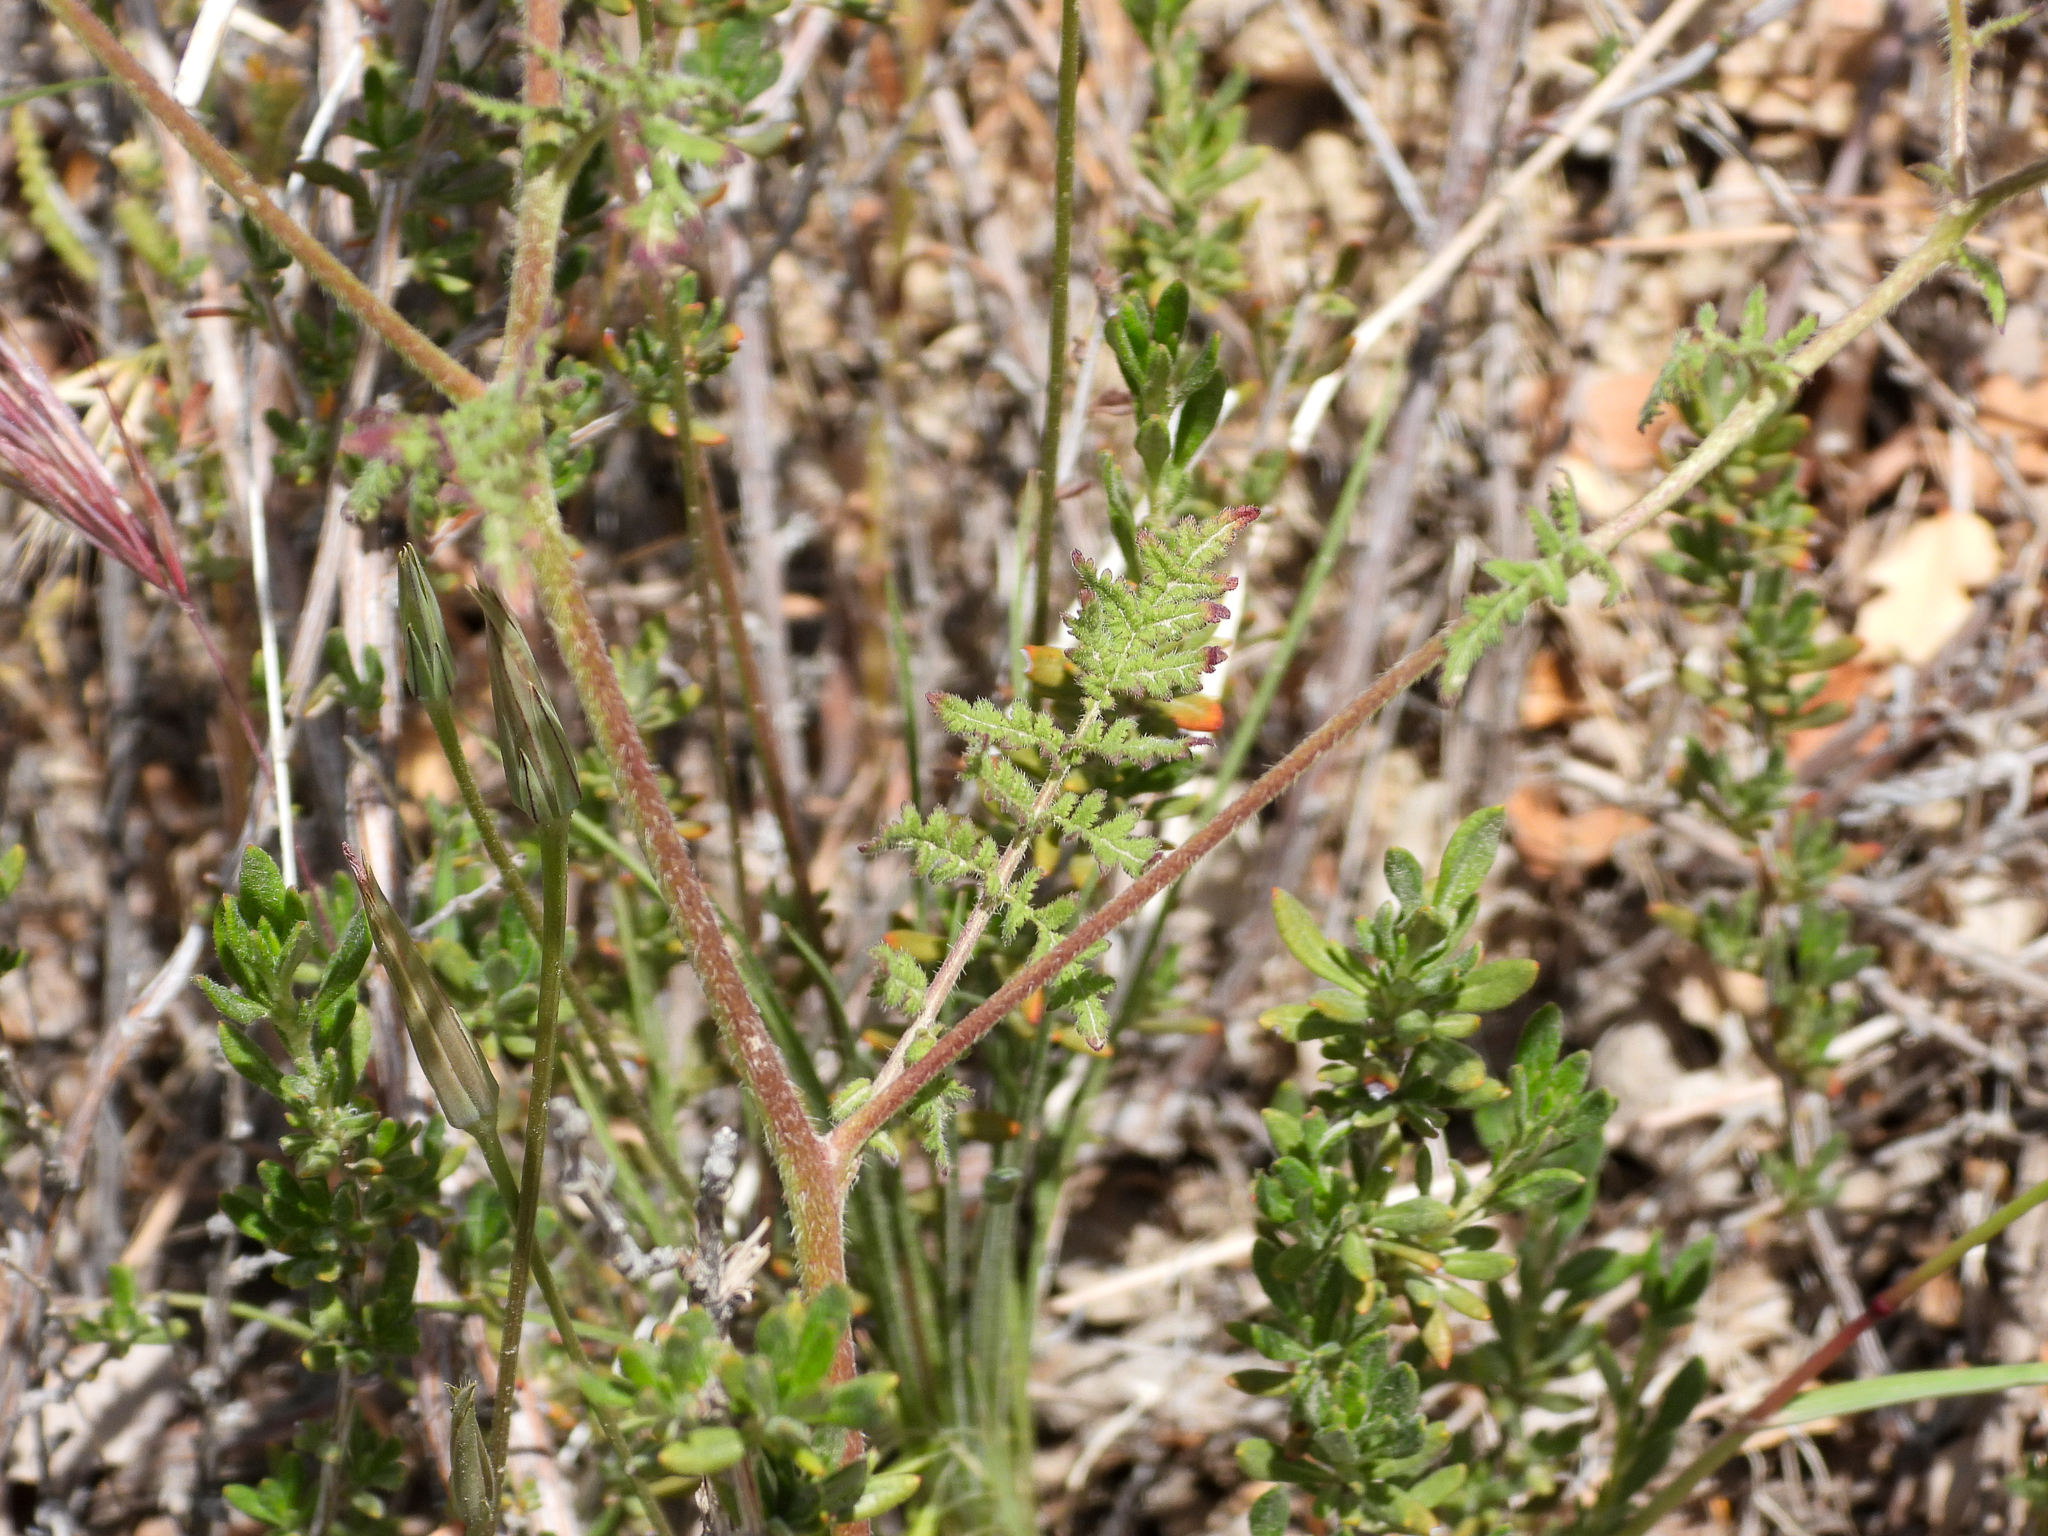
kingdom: Plantae
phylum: Tracheophyta
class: Magnoliopsida
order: Boraginales
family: Hydrophyllaceae
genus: Phacelia
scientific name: Phacelia distans
